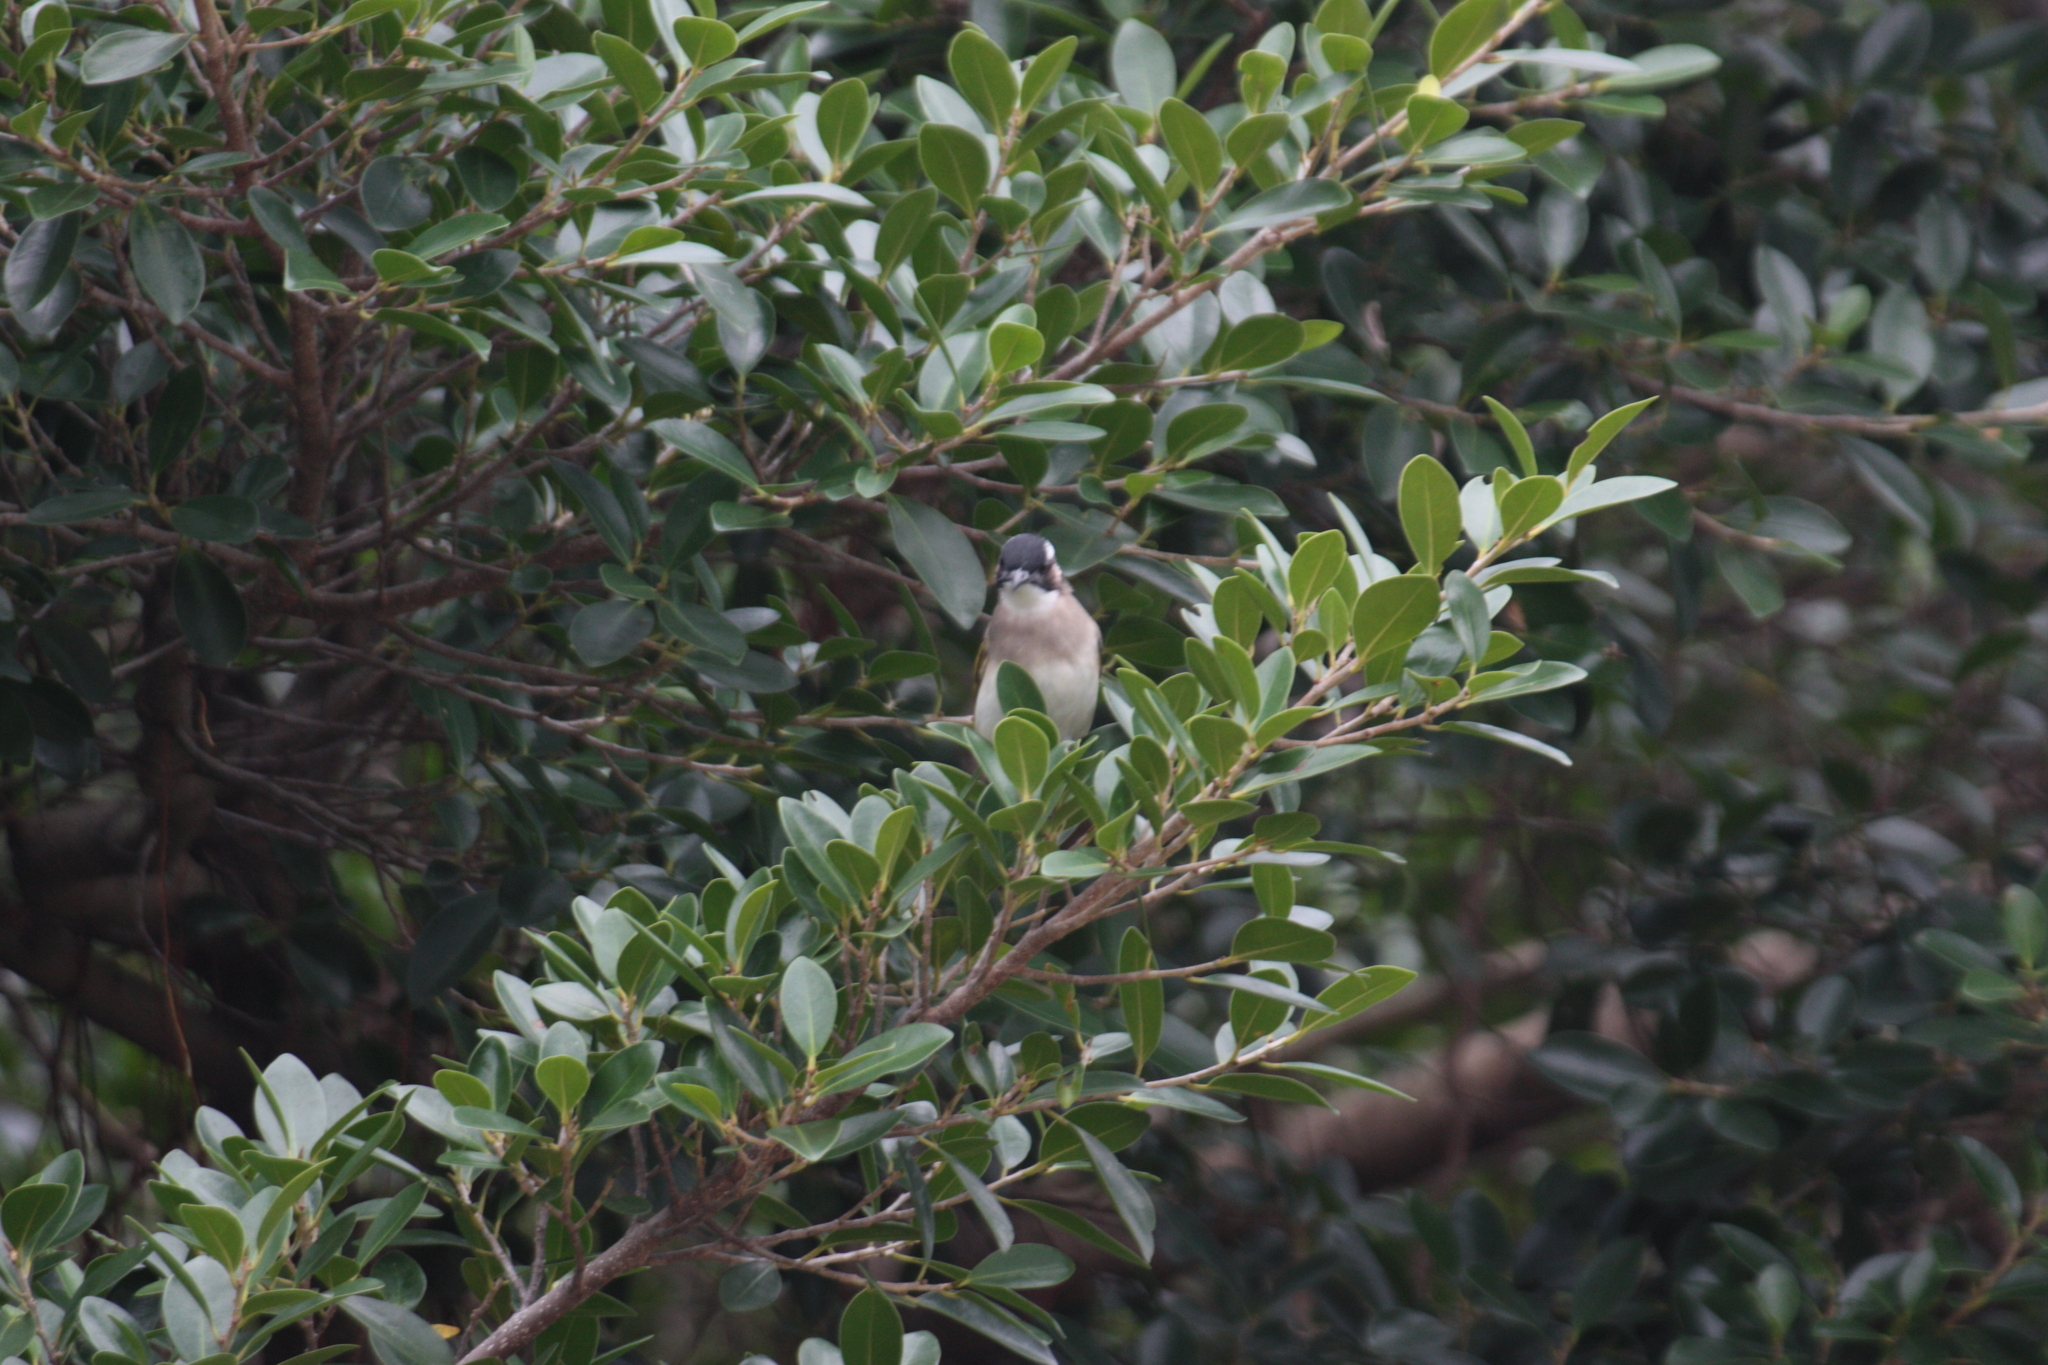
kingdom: Animalia
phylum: Chordata
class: Aves
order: Passeriformes
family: Pycnonotidae
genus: Pycnonotus
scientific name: Pycnonotus sinensis
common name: Light-vented bulbul
